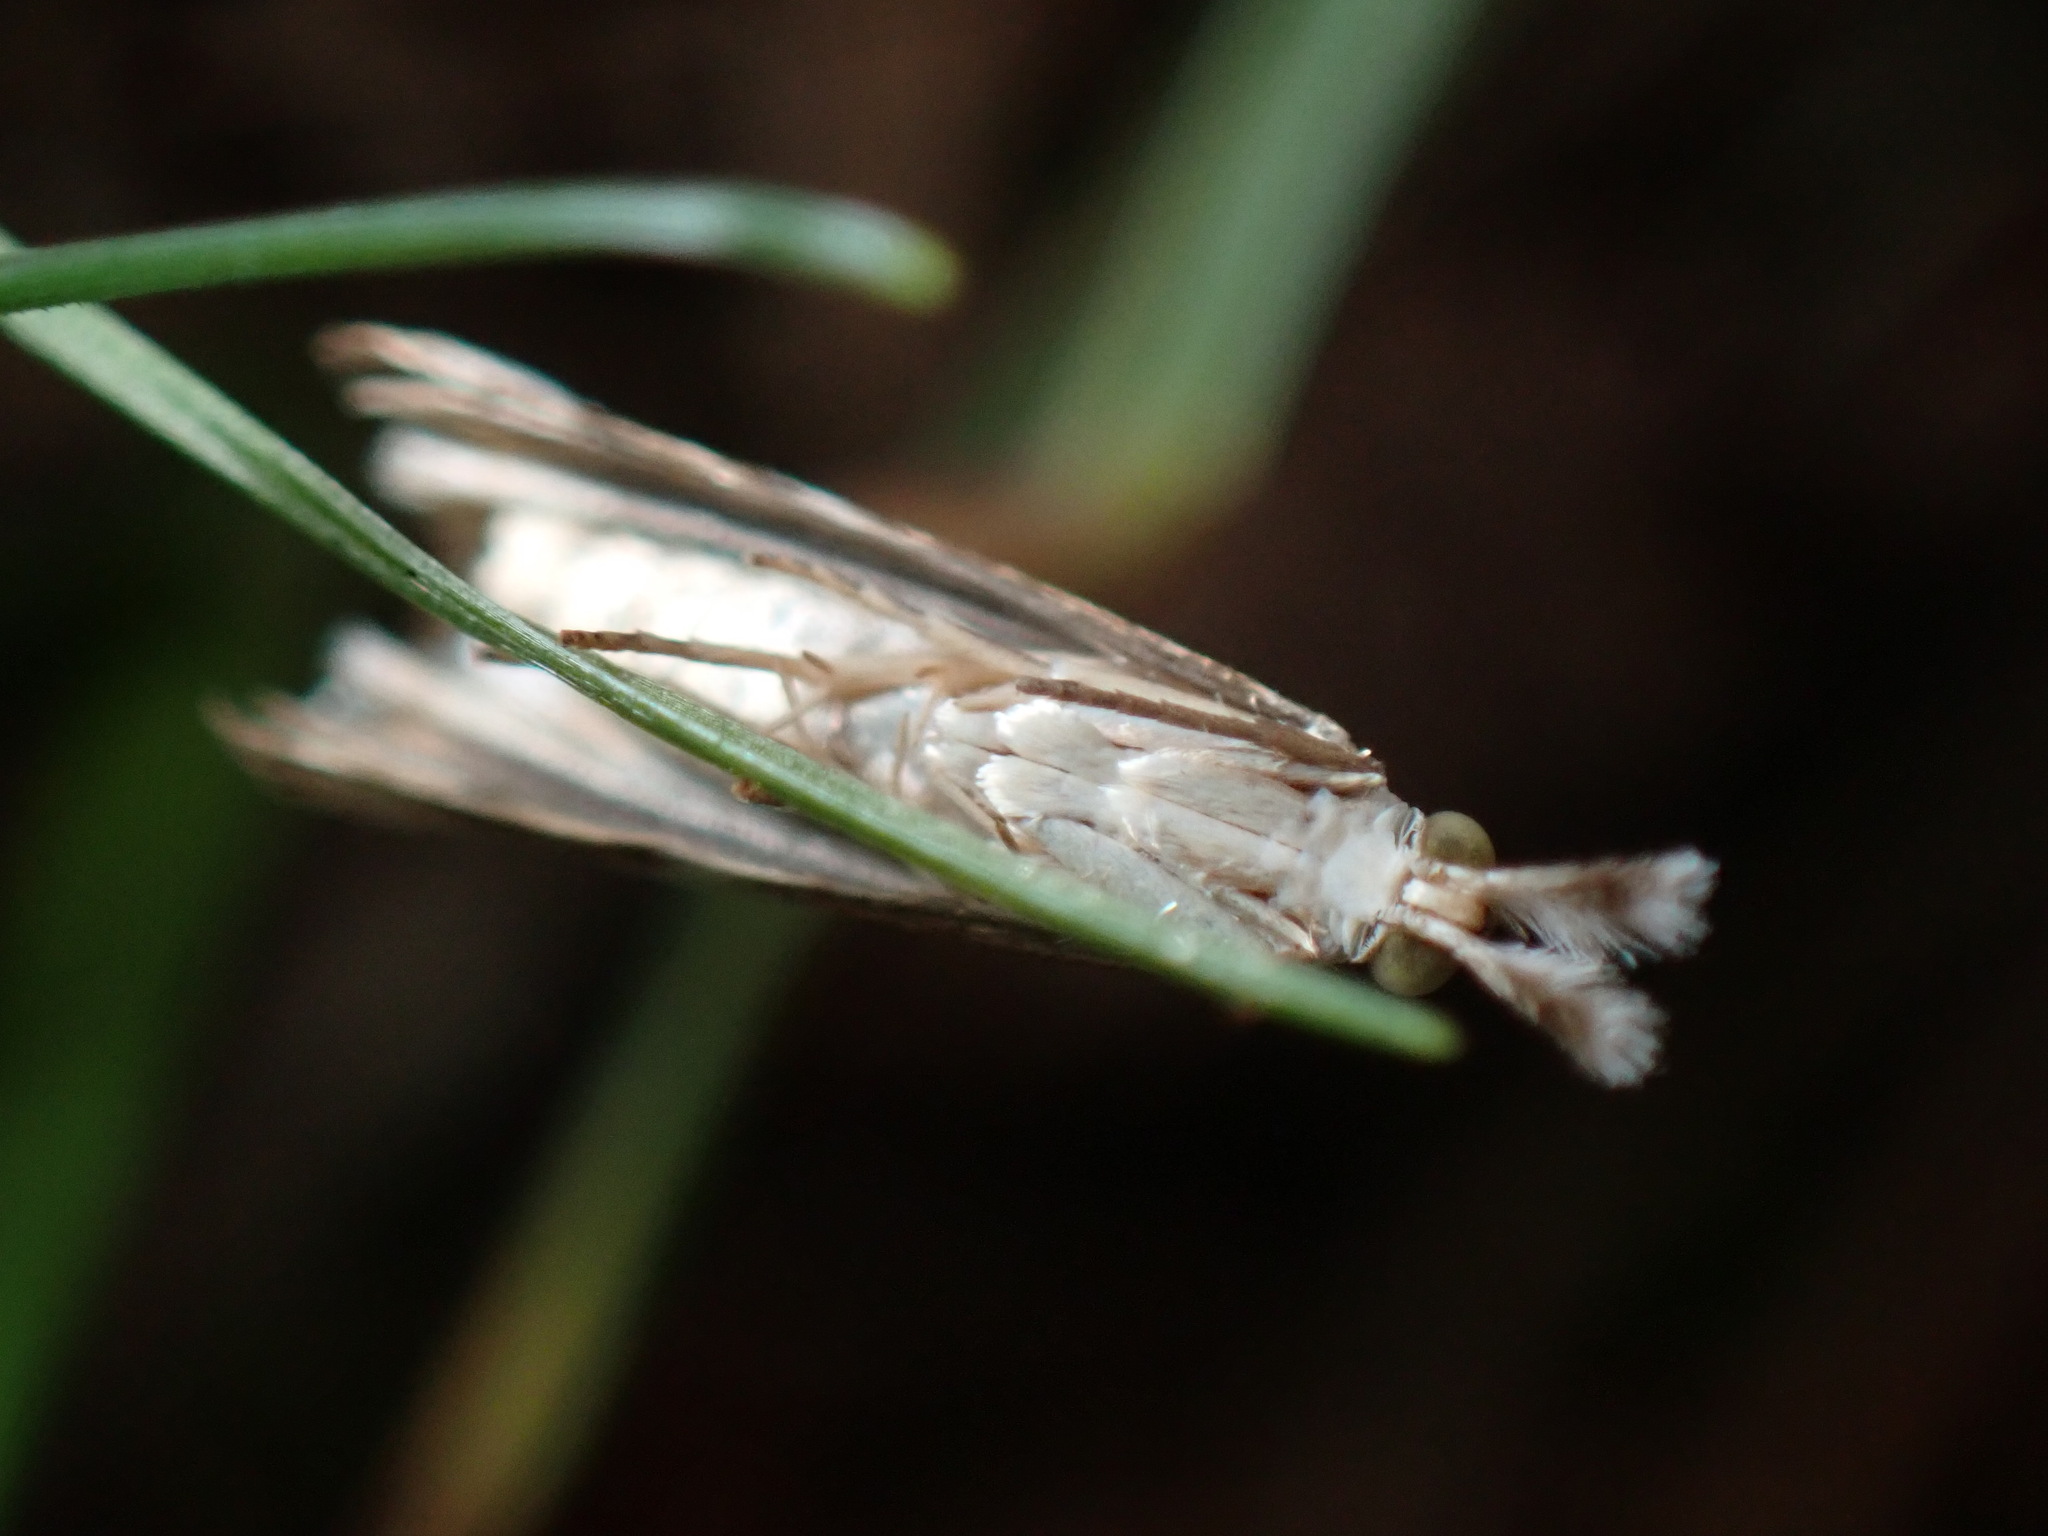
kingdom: Animalia
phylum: Arthropoda
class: Insecta
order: Lepidoptera
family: Crambidae
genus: Microcrambus
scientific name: Microcrambus elegans
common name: Elegant grass-veneer
